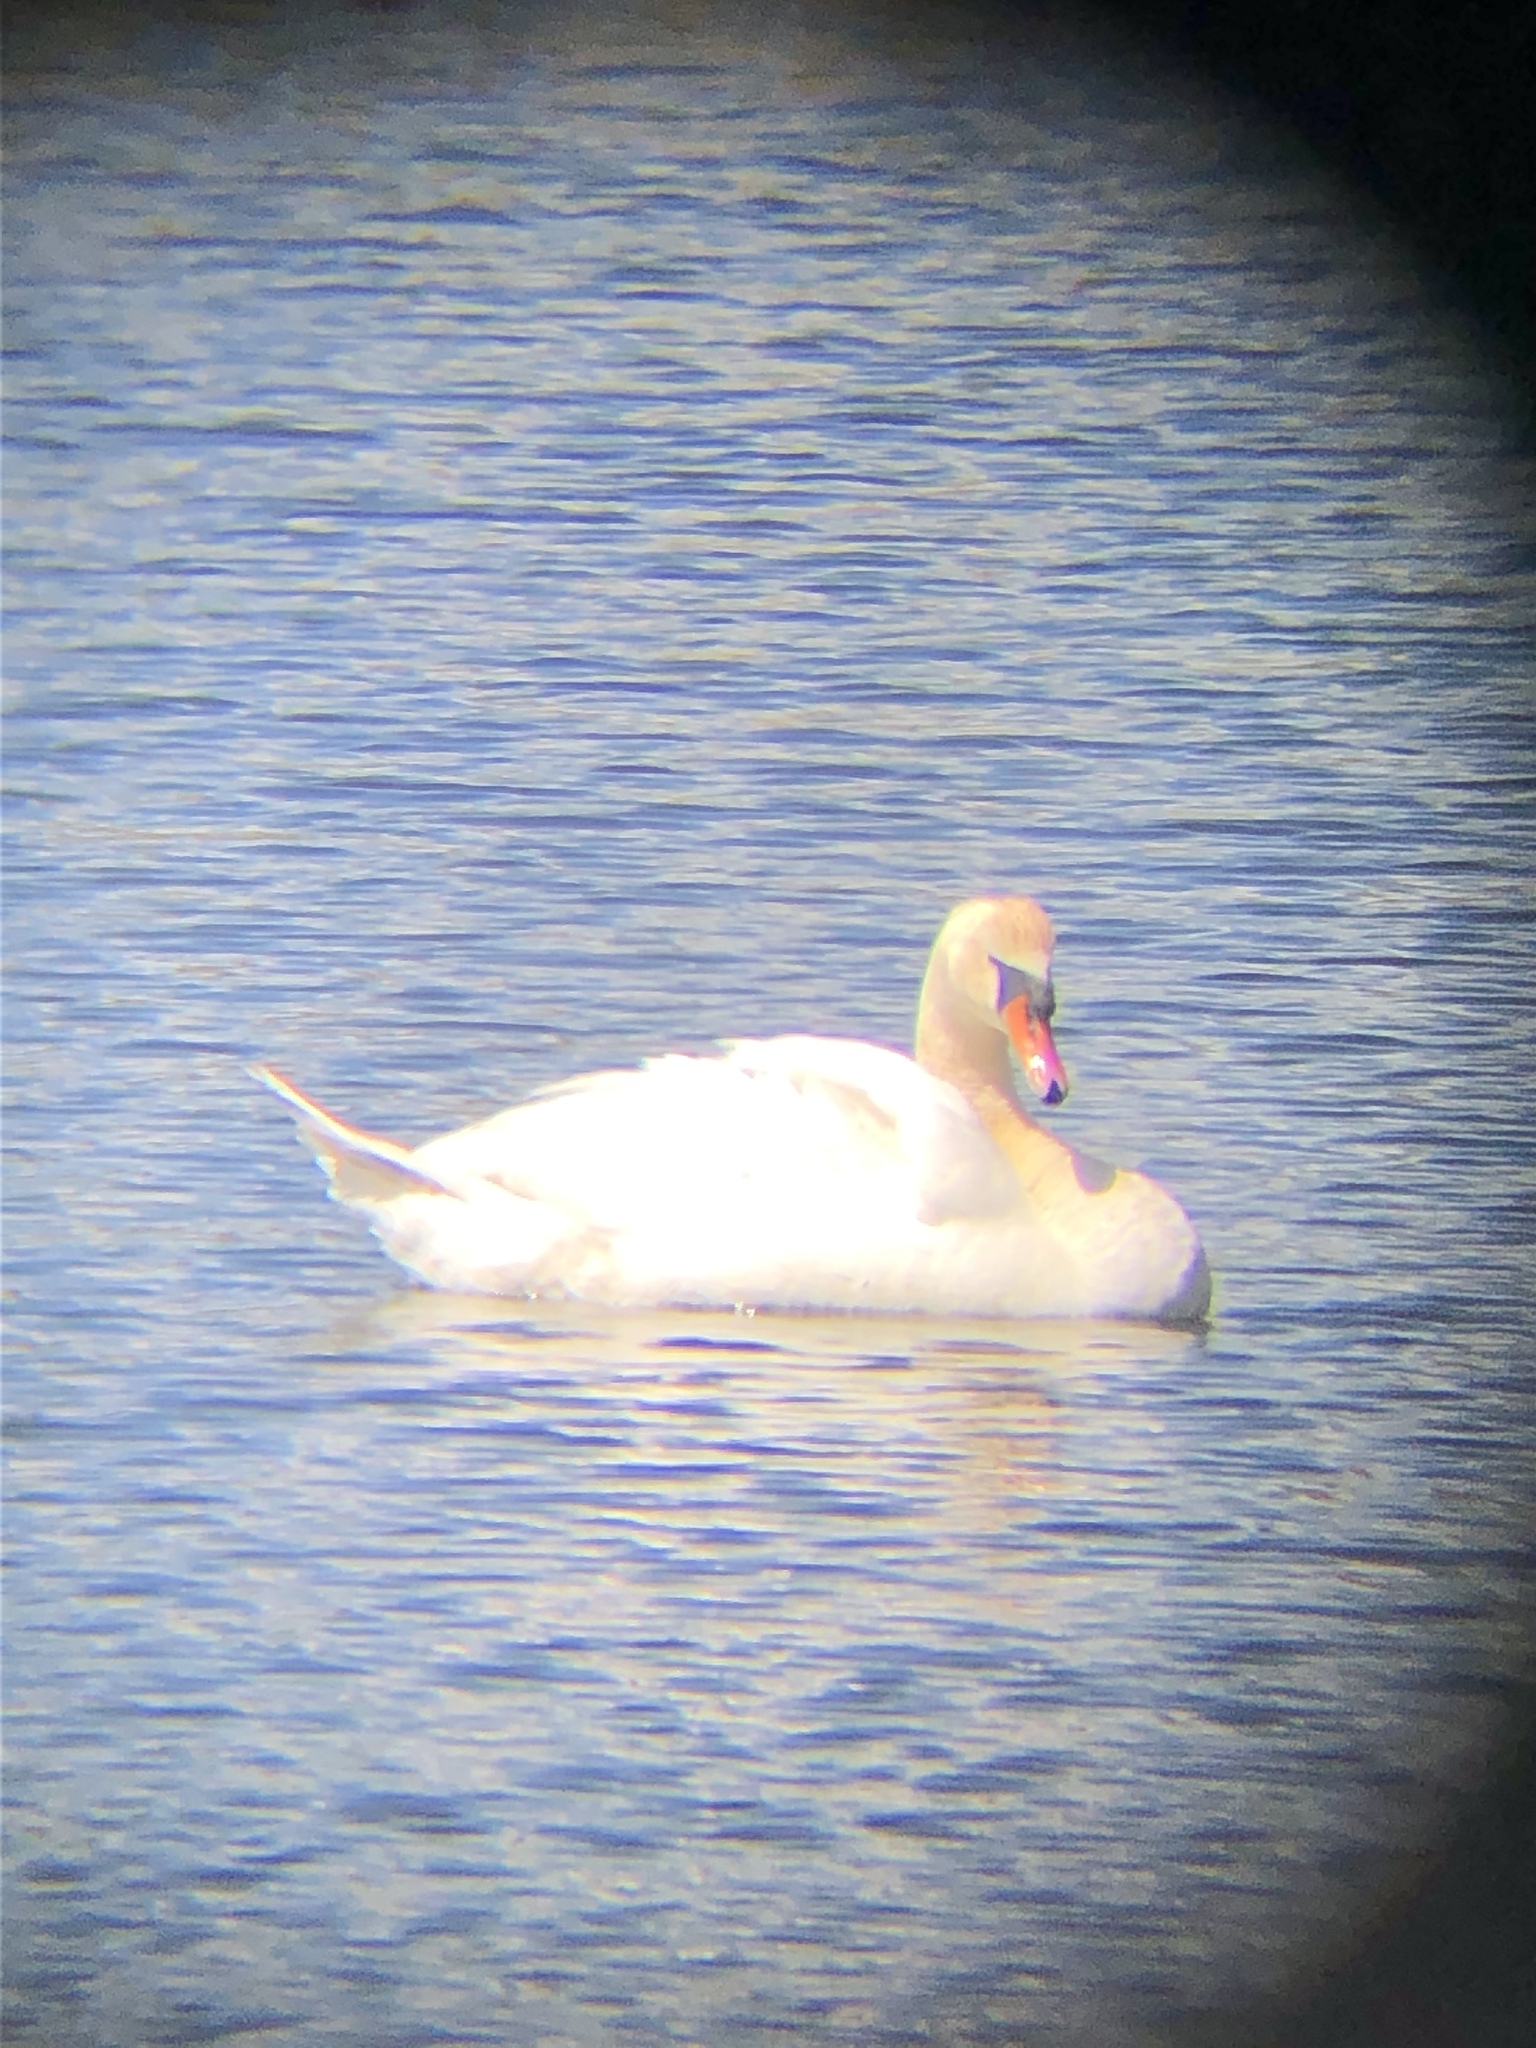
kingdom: Animalia
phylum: Chordata
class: Aves
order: Anseriformes
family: Anatidae
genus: Cygnus
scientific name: Cygnus olor
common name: Mute swan
